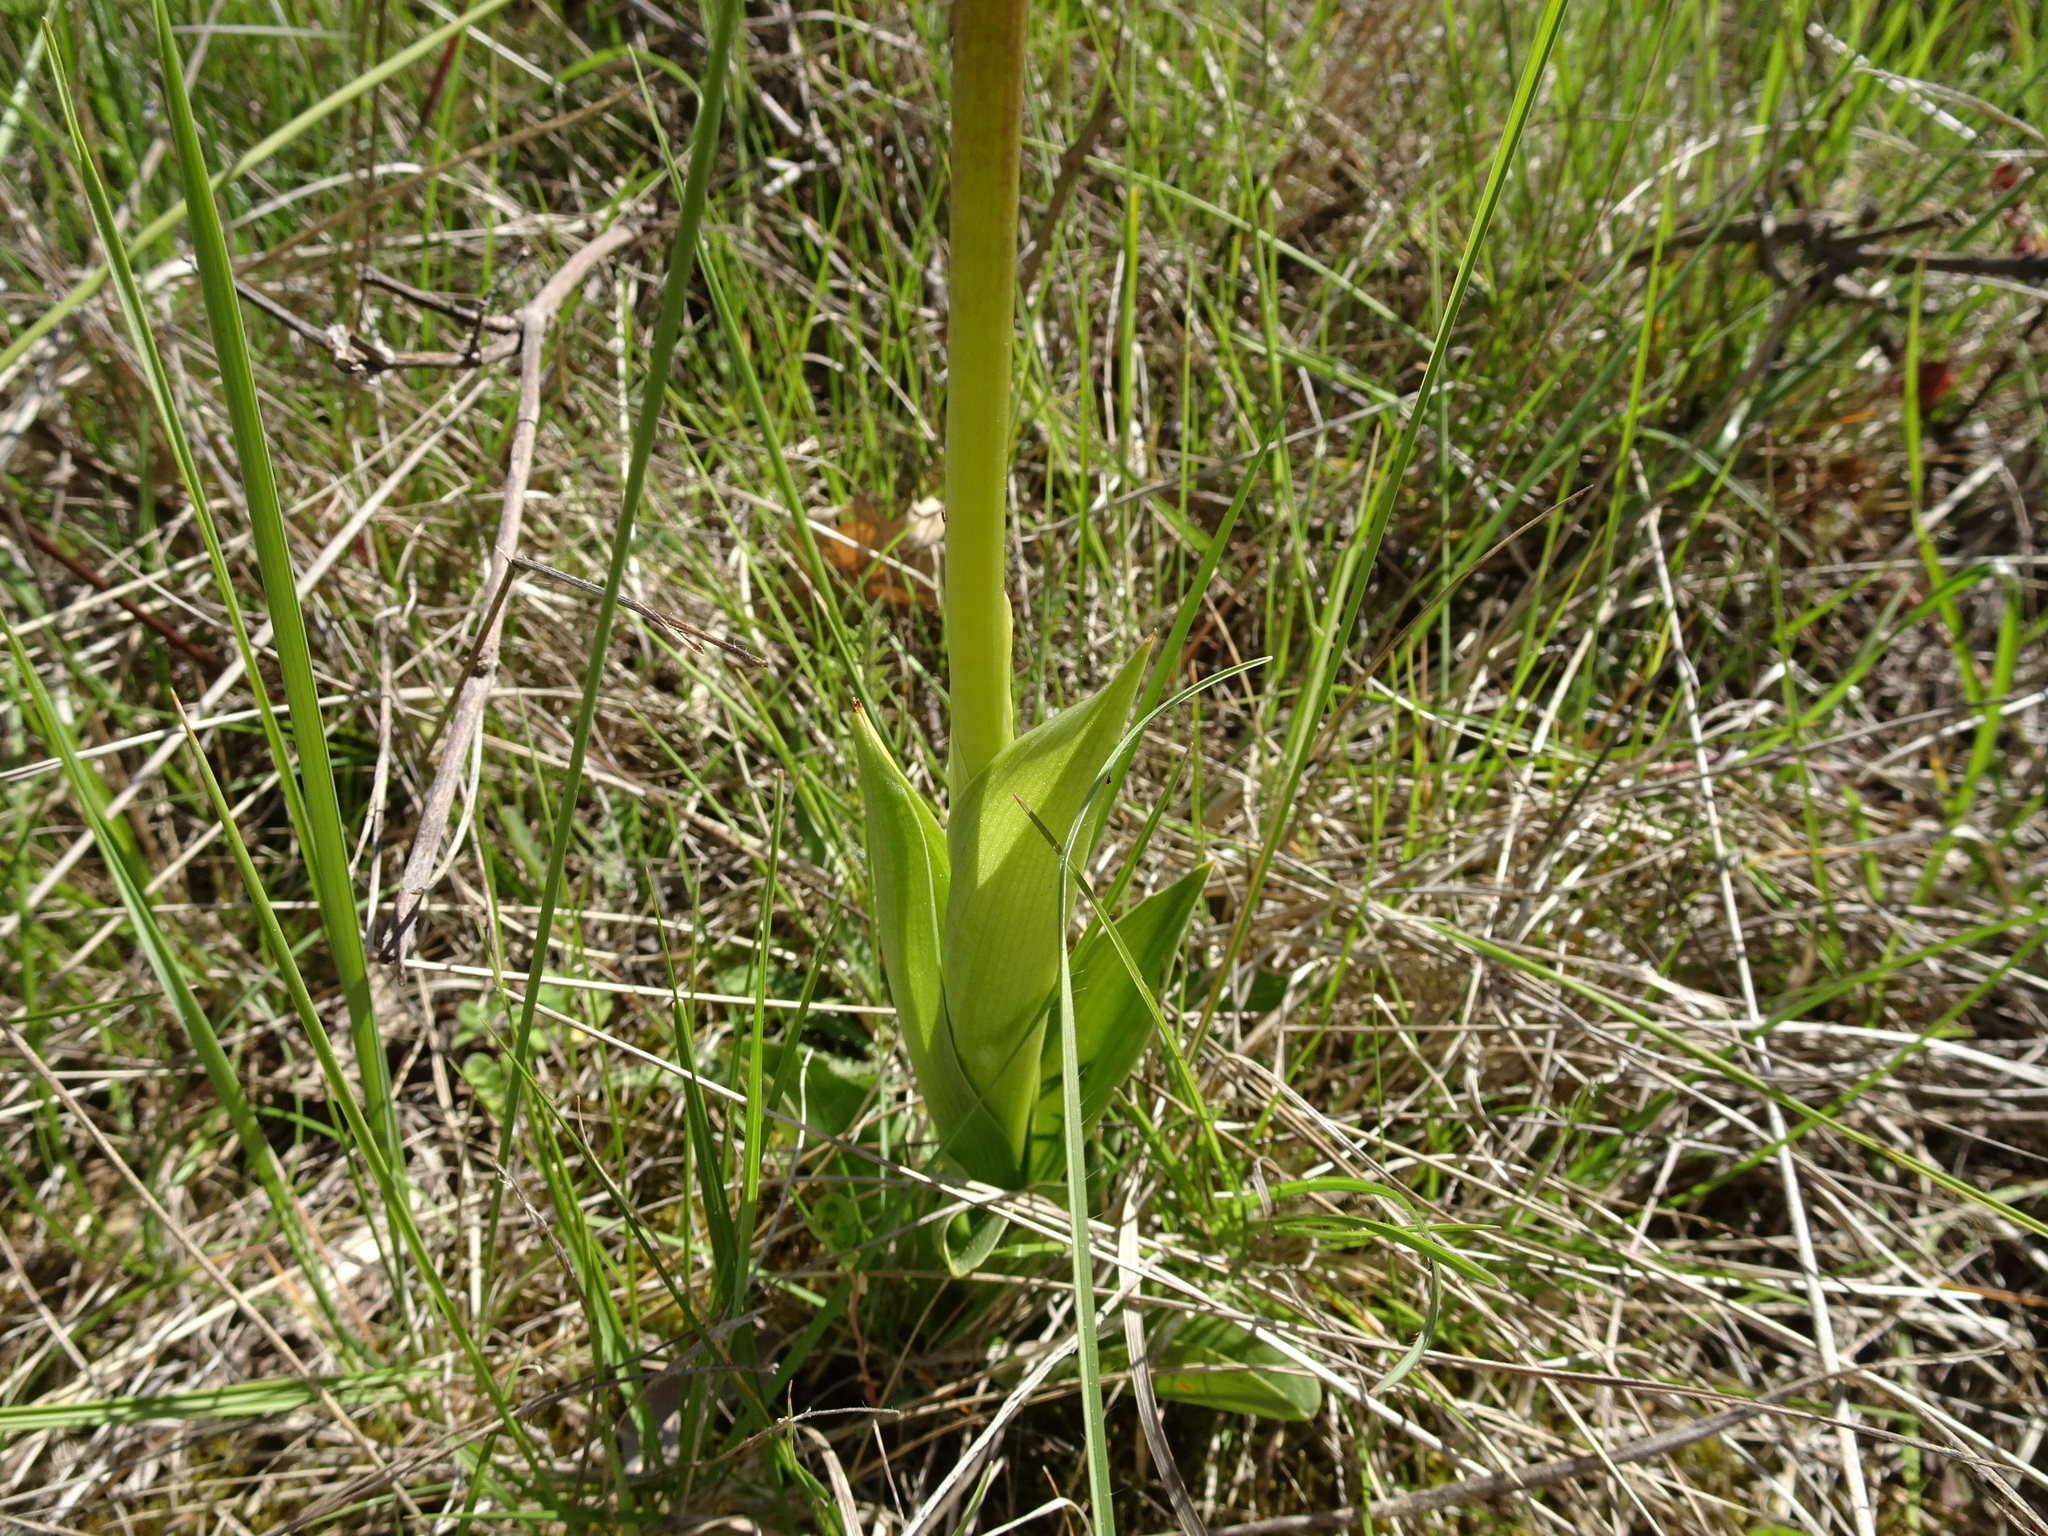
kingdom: Plantae
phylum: Tracheophyta
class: Liliopsida
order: Asparagales
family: Orchidaceae
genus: Orchis
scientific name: Orchis purpurea
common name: Lady orchid
